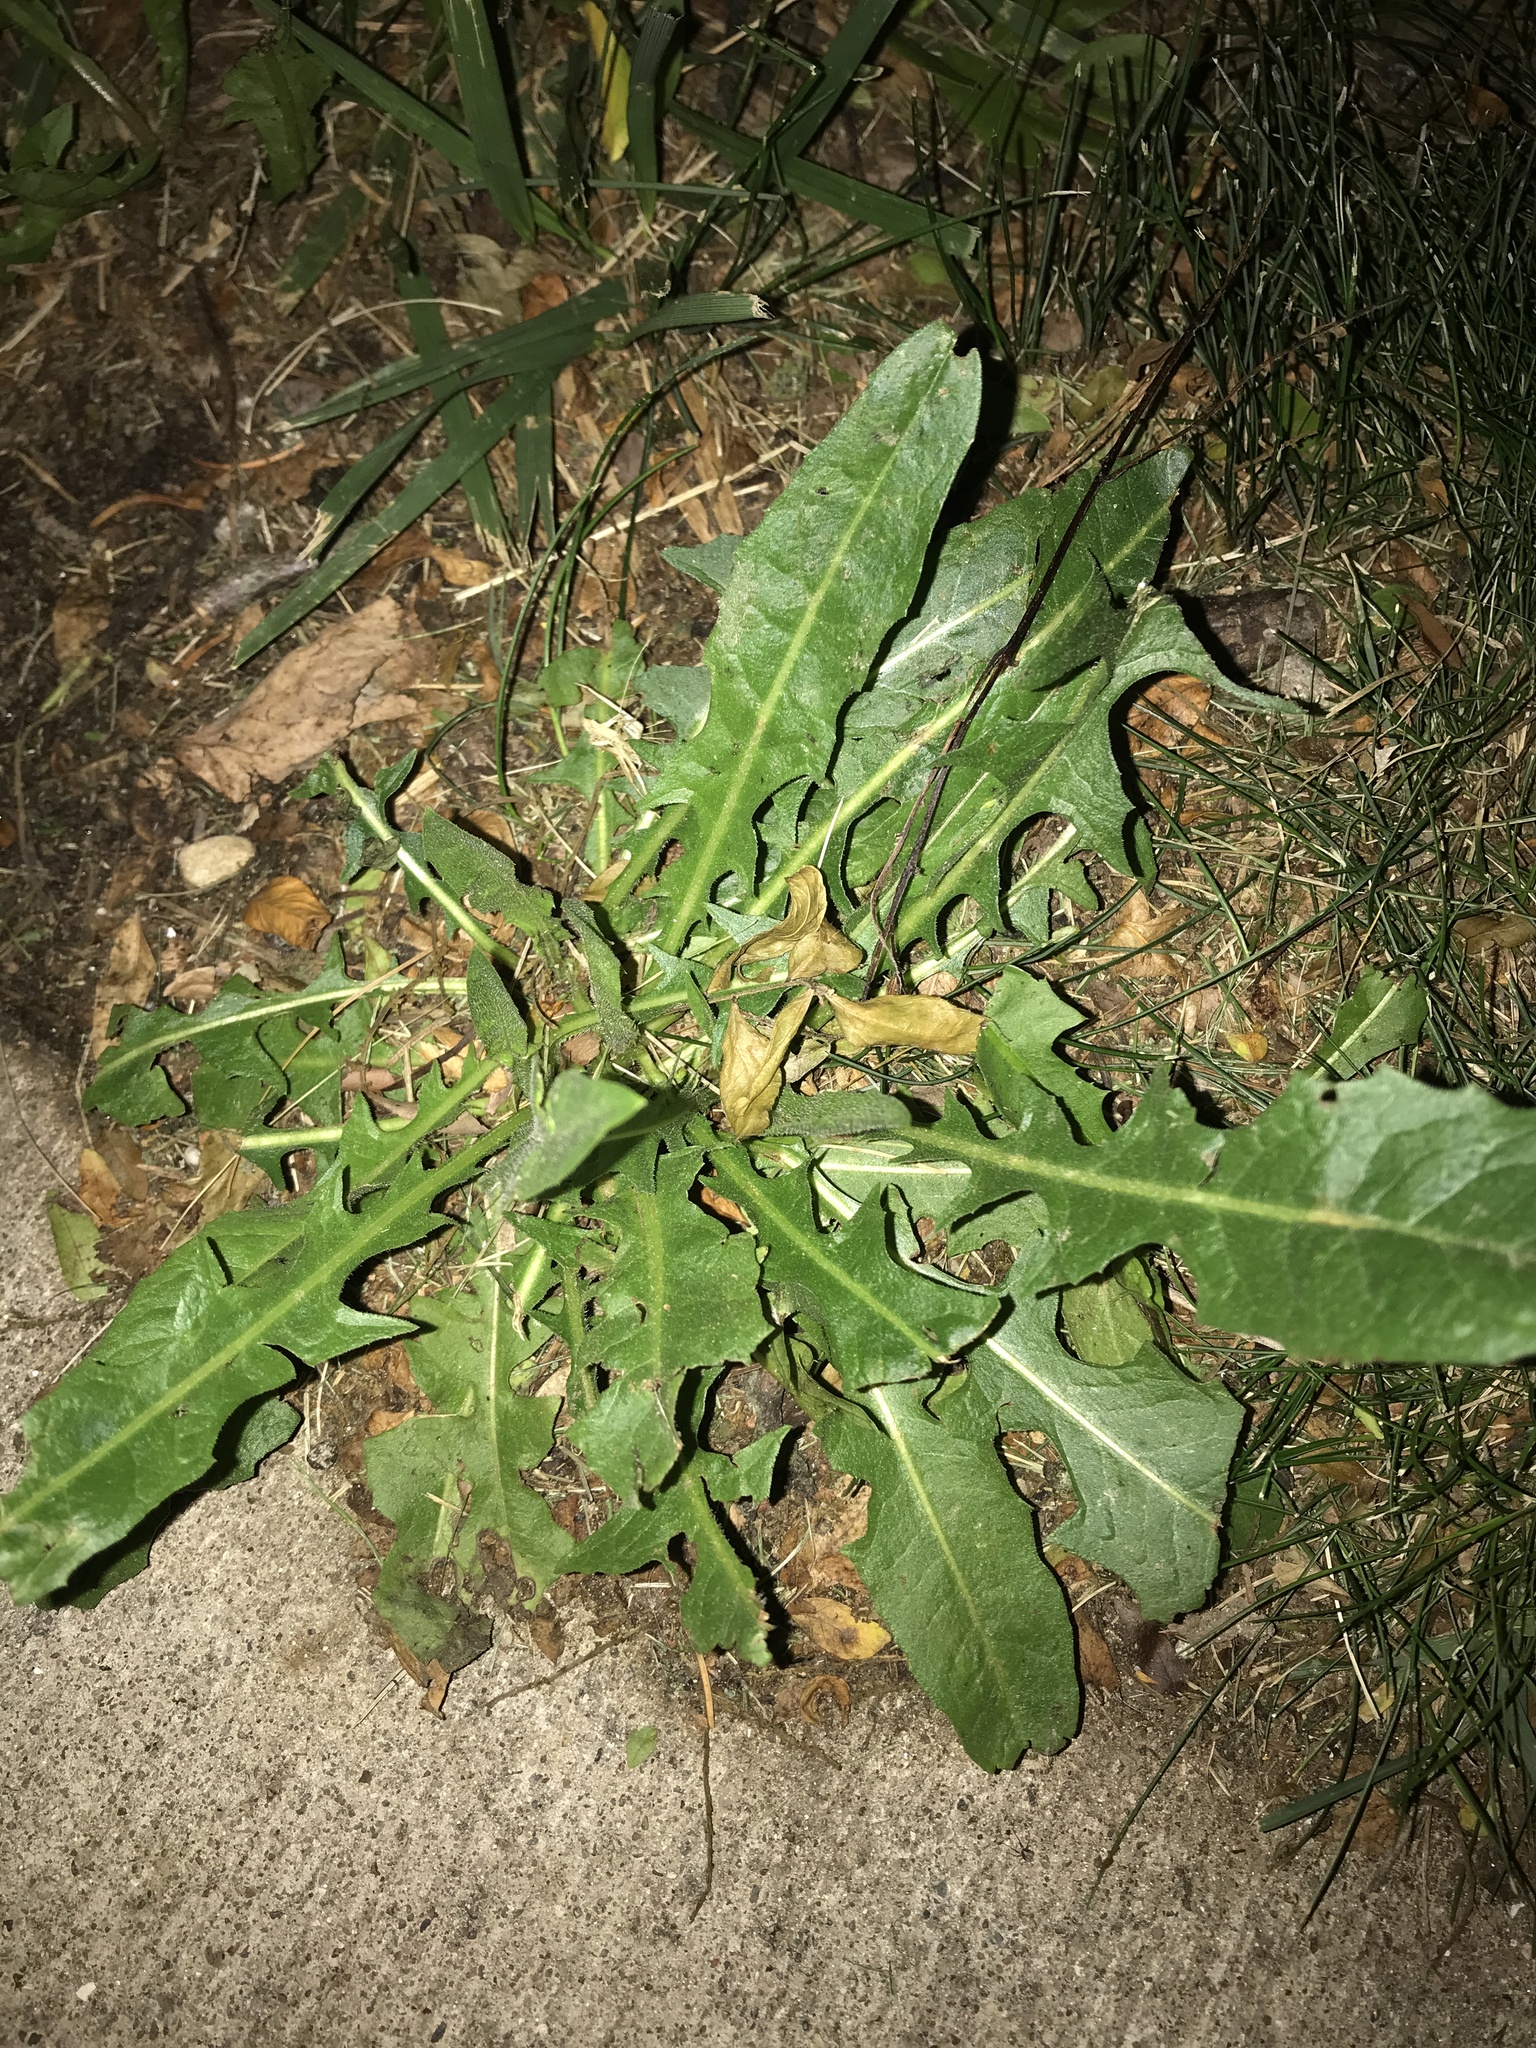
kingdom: Plantae
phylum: Tracheophyta
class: Magnoliopsida
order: Asterales
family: Asteraceae
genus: Taraxacum
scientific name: Taraxacum officinale
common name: Common dandelion
